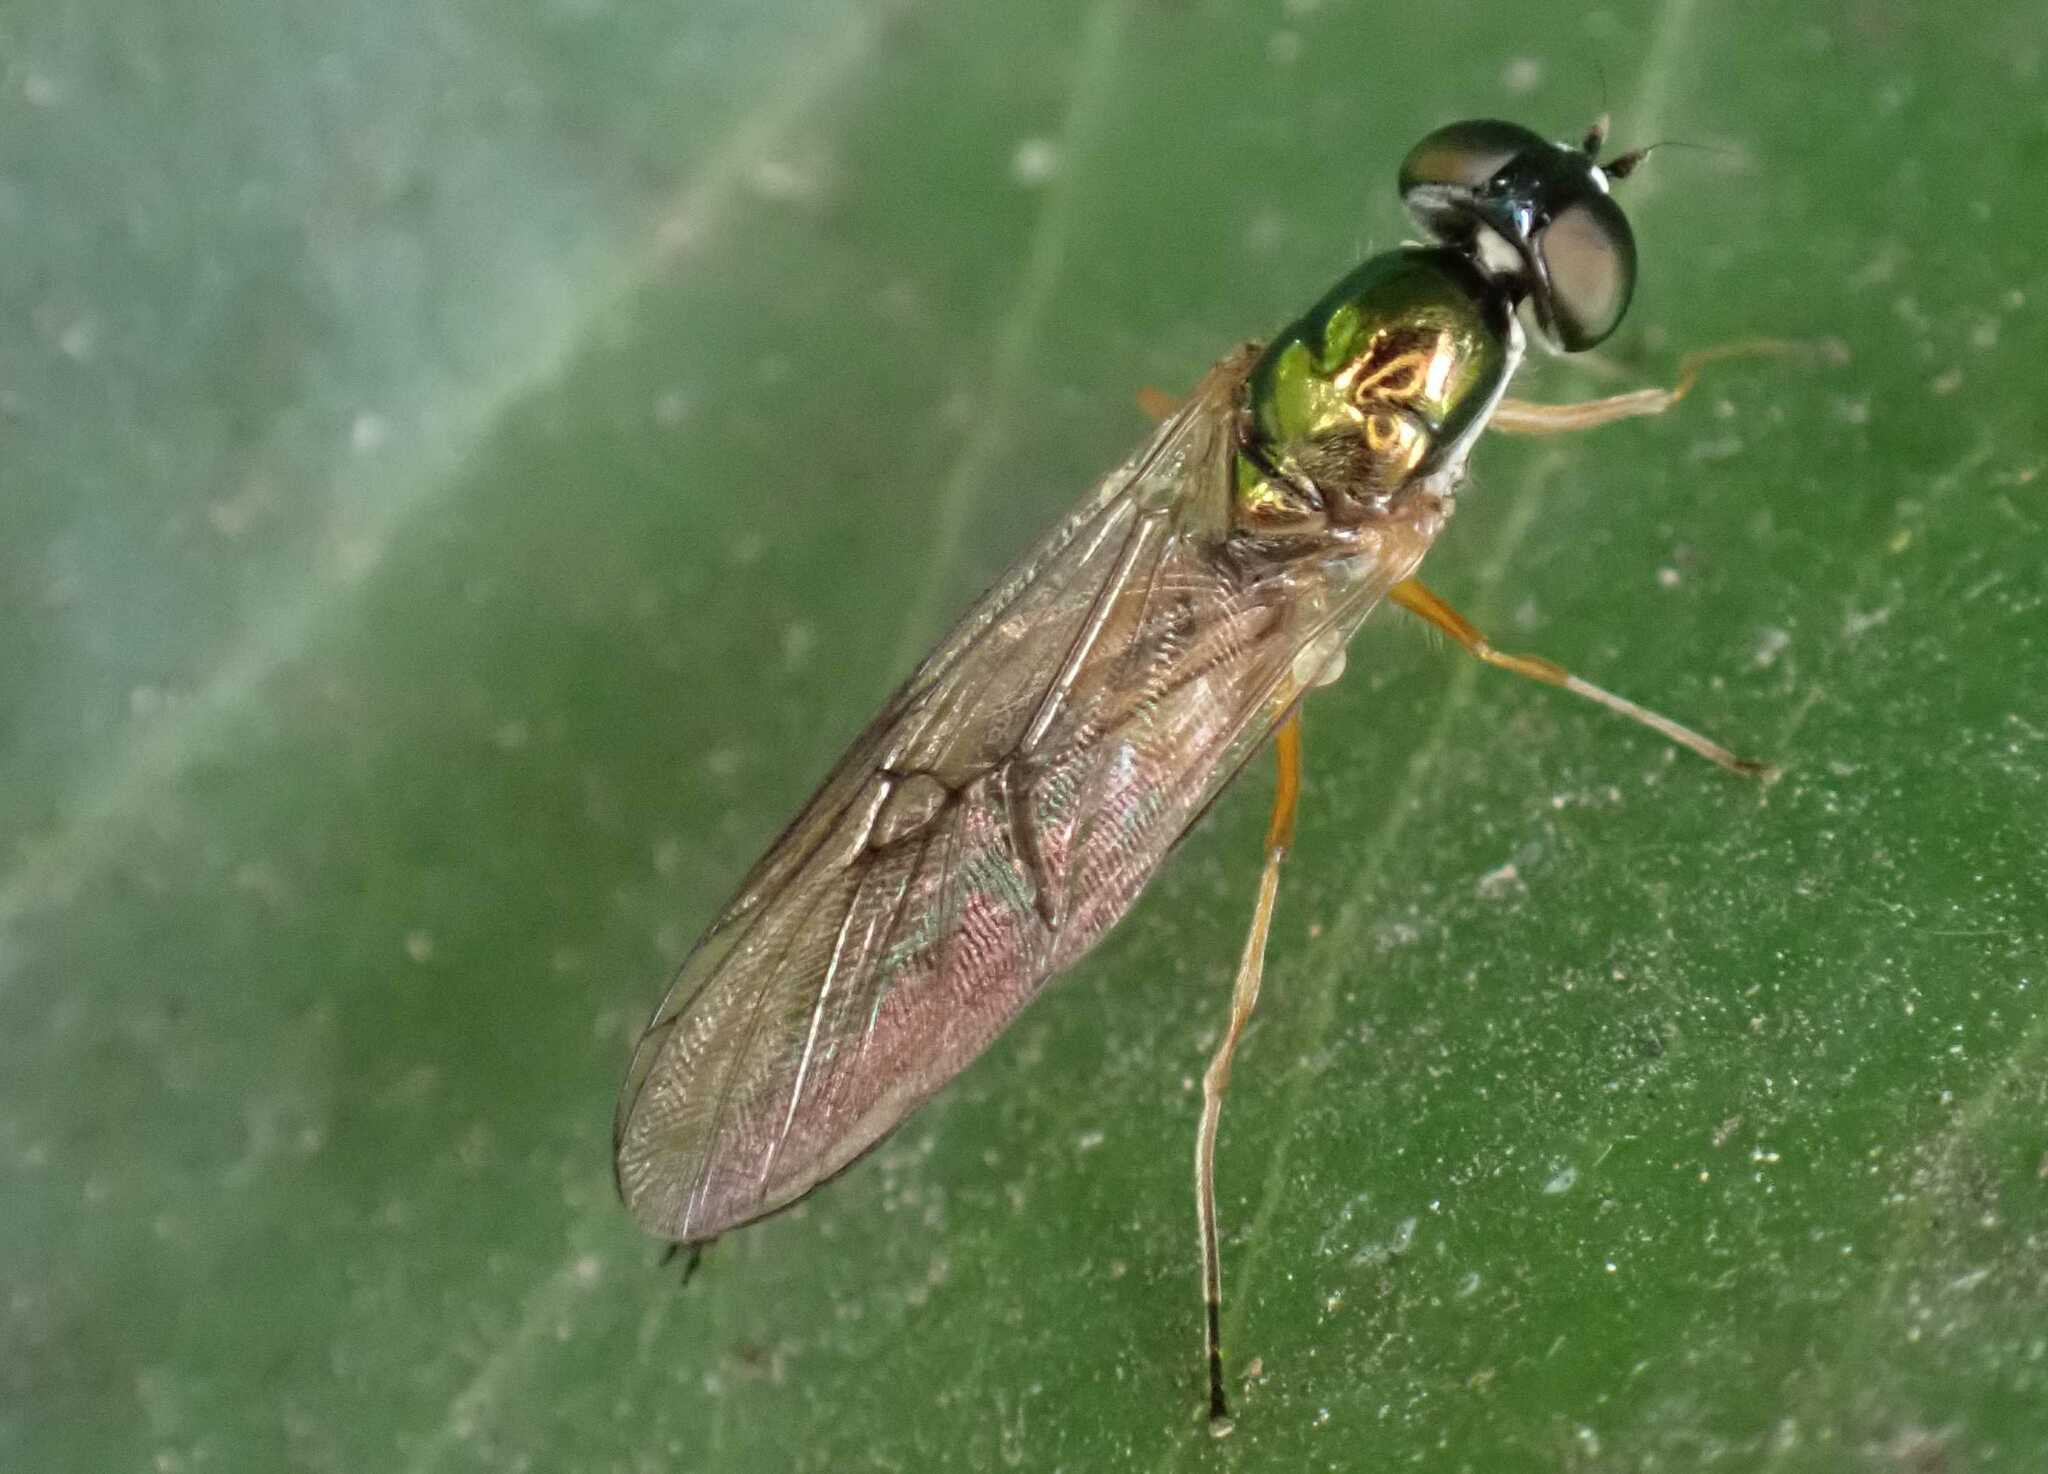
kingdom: Animalia
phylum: Arthropoda
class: Insecta
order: Diptera
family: Stratiomyidae
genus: Sargus
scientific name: Sargus bipunctatus
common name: Twin-spot centurion
